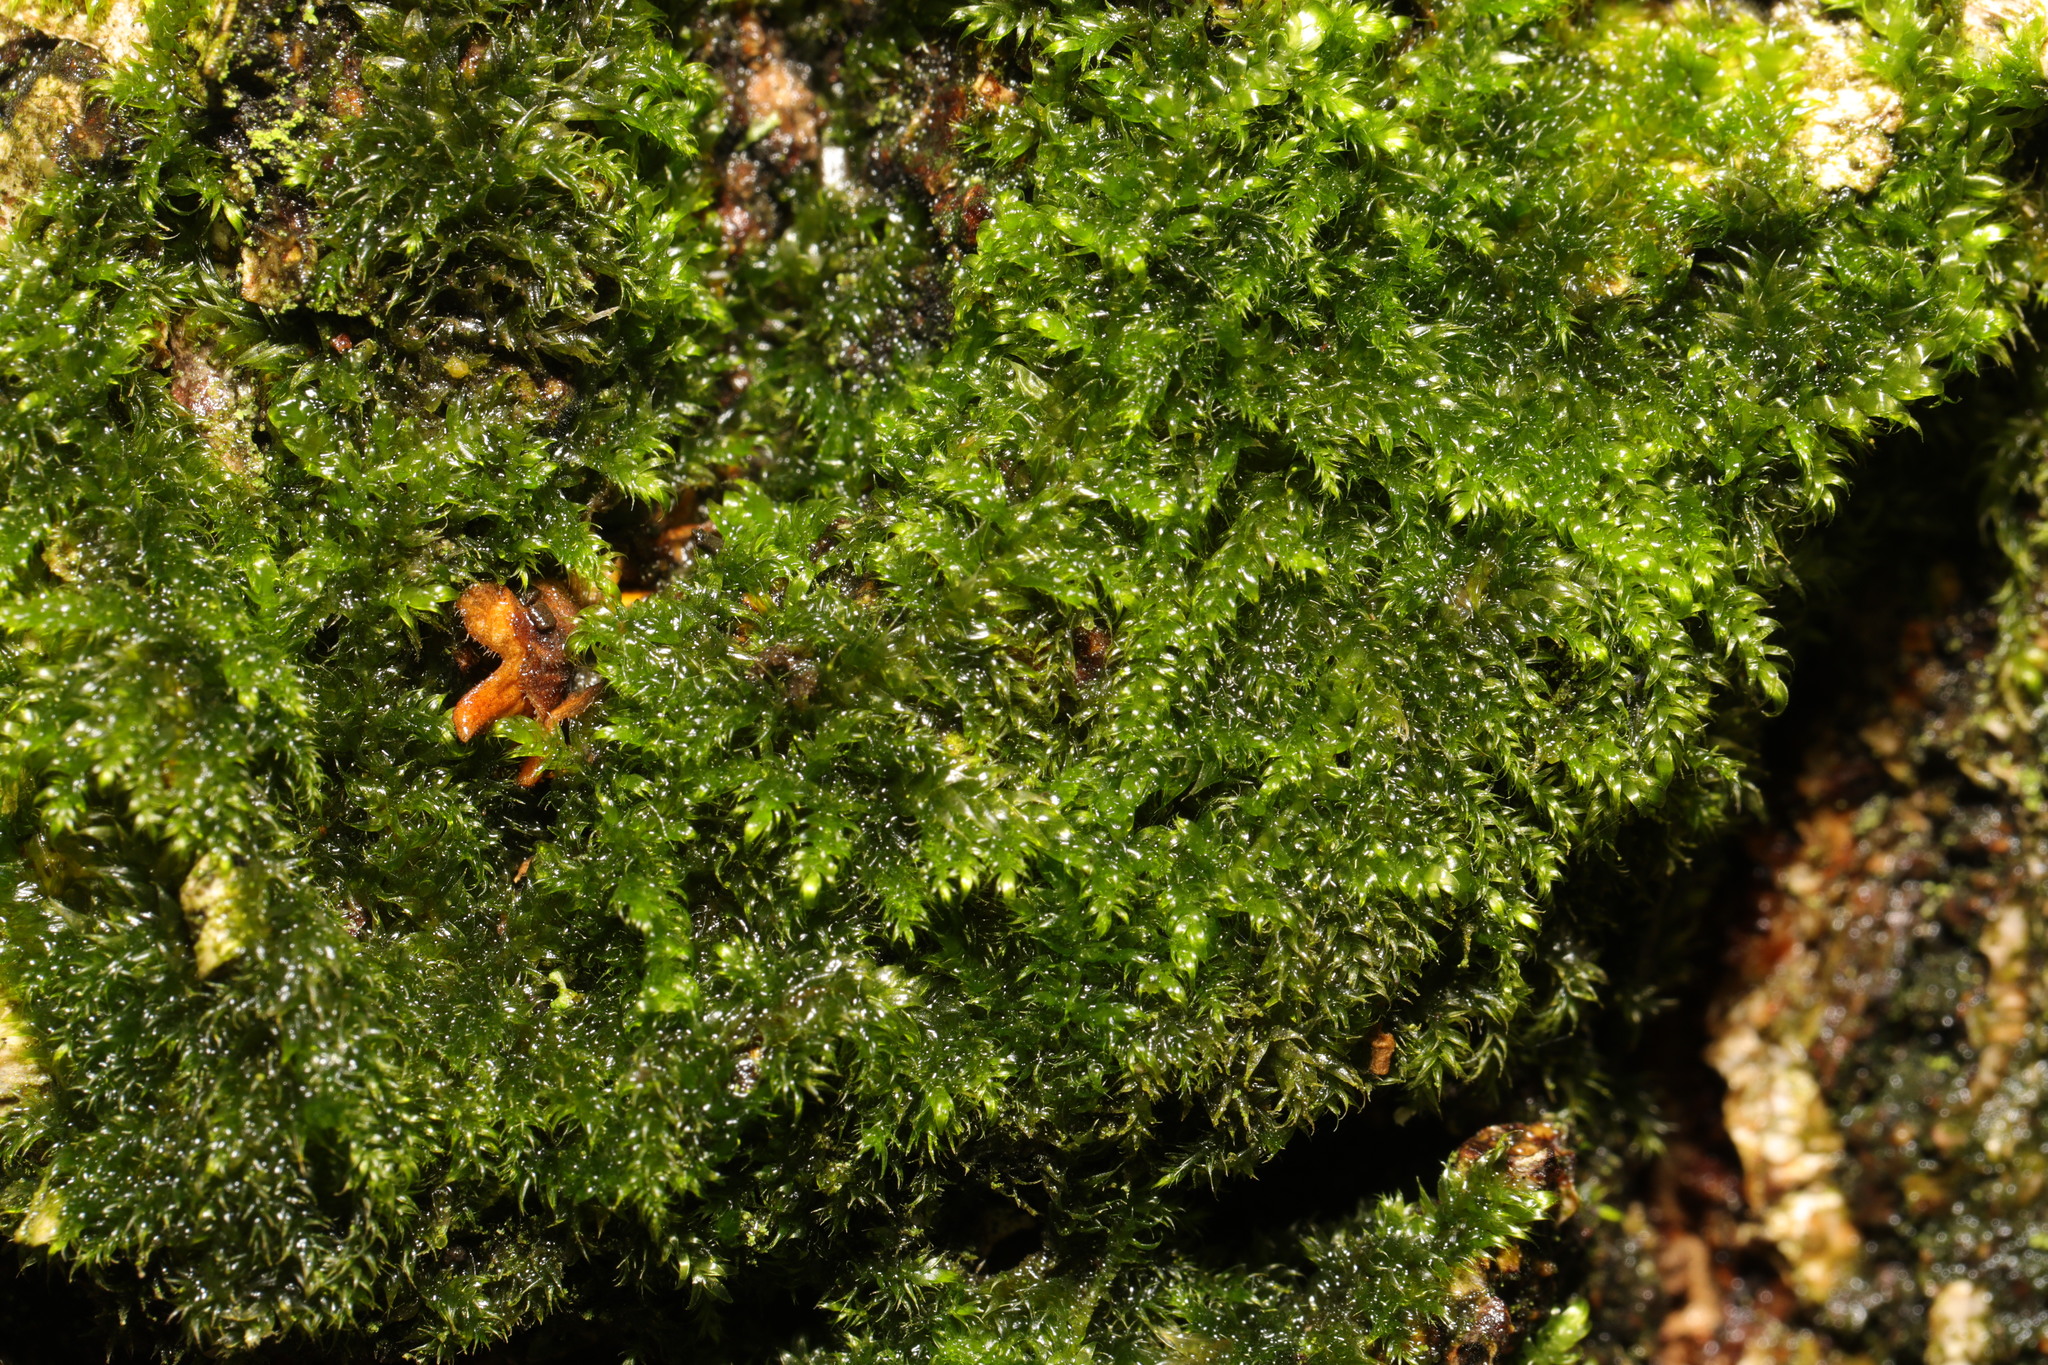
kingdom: Plantae
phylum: Bryophyta
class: Bryopsida
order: Hypnales
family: Hypnaceae
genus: Hypnum
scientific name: Hypnum cupressiforme
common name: Cypress-leaved plait-moss
